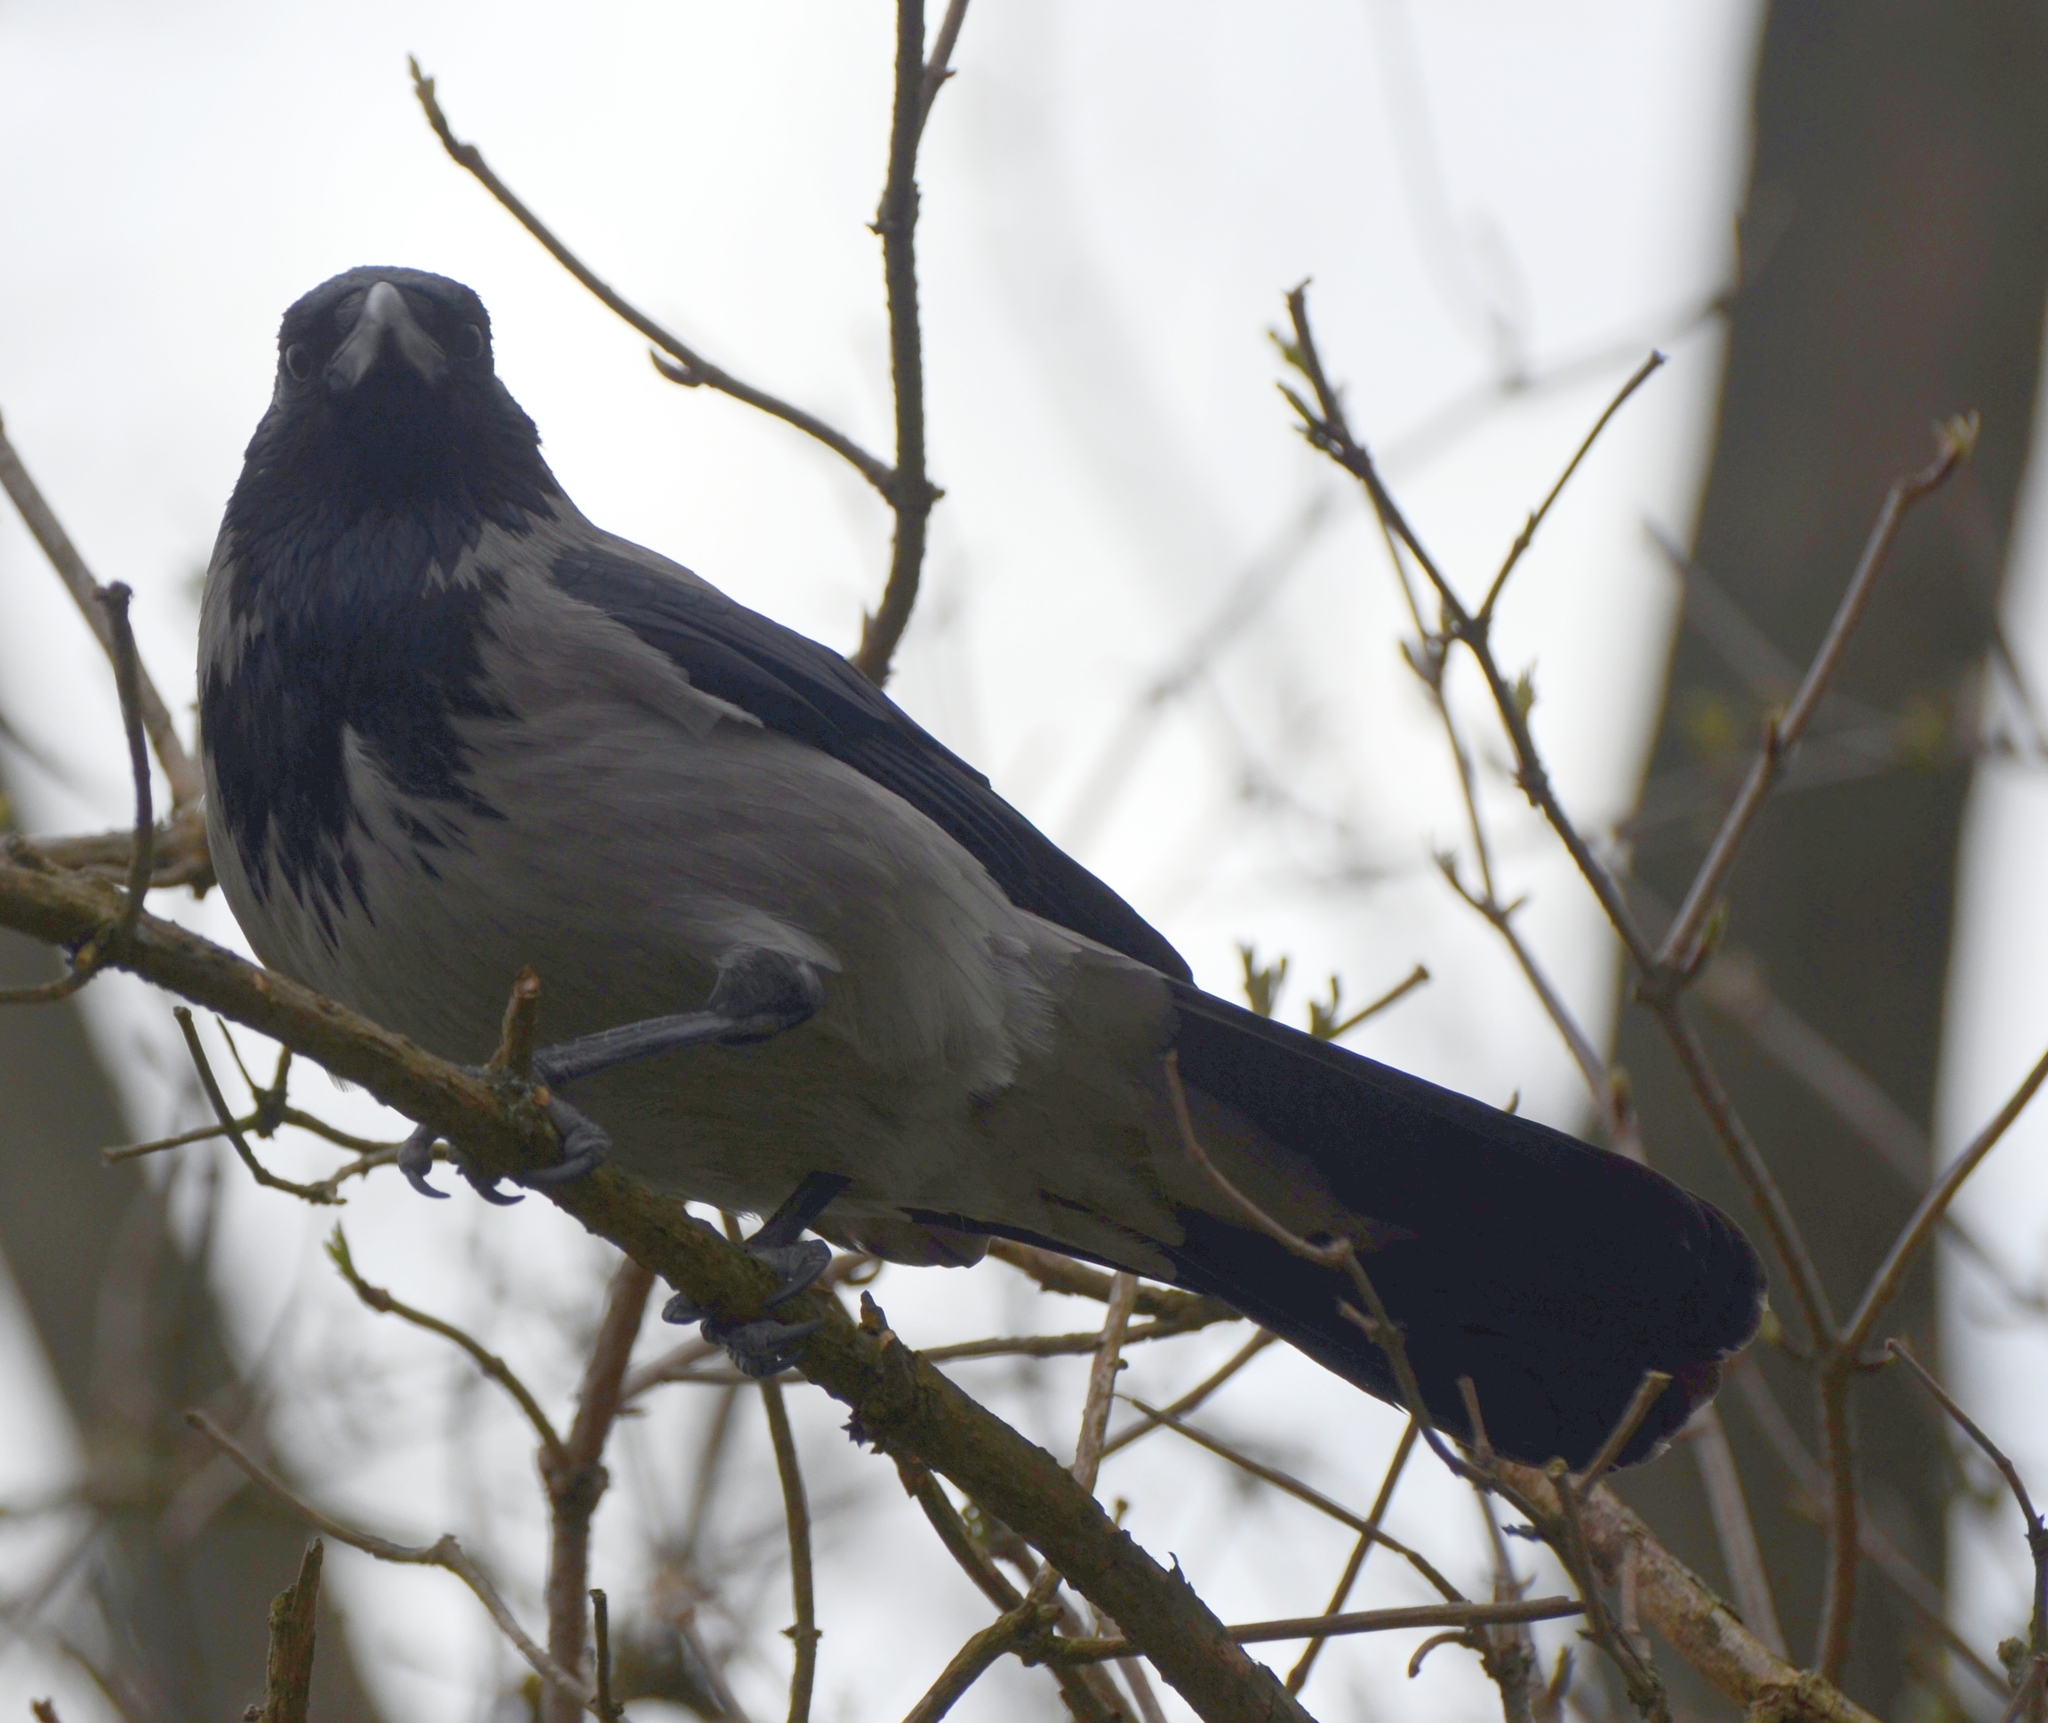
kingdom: Animalia
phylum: Chordata
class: Aves
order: Passeriformes
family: Corvidae
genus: Corvus
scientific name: Corvus cornix
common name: Hooded crow
